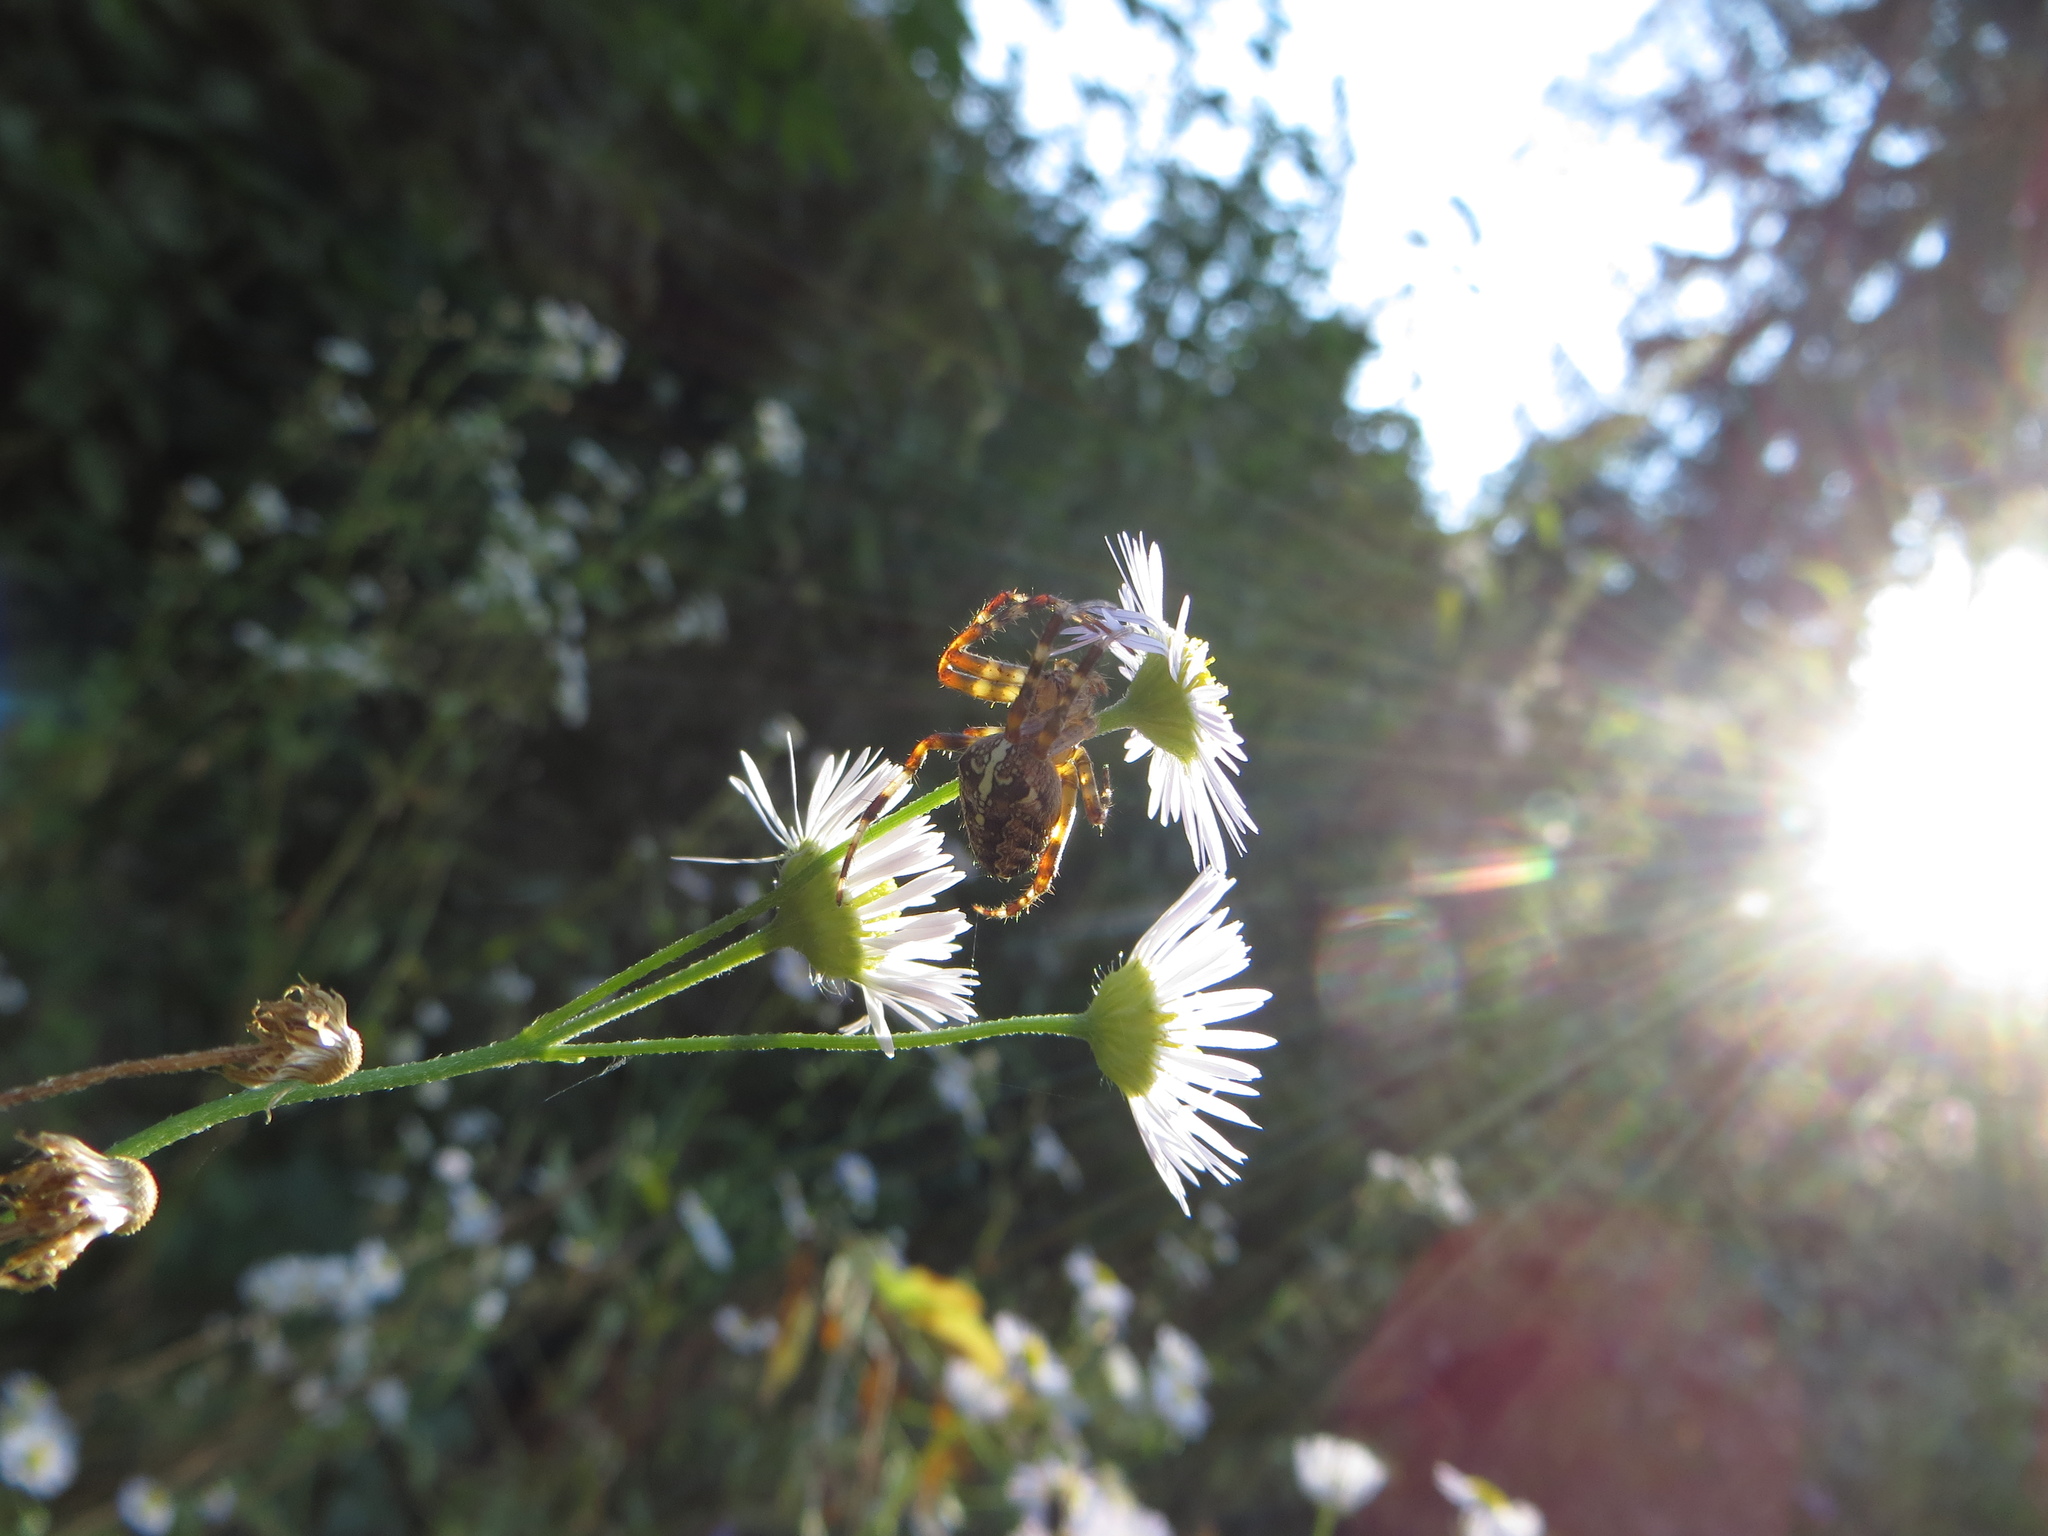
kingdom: Animalia
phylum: Arthropoda
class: Arachnida
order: Araneae
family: Araneidae
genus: Araneus
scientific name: Araneus diadematus
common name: Cross orbweaver
